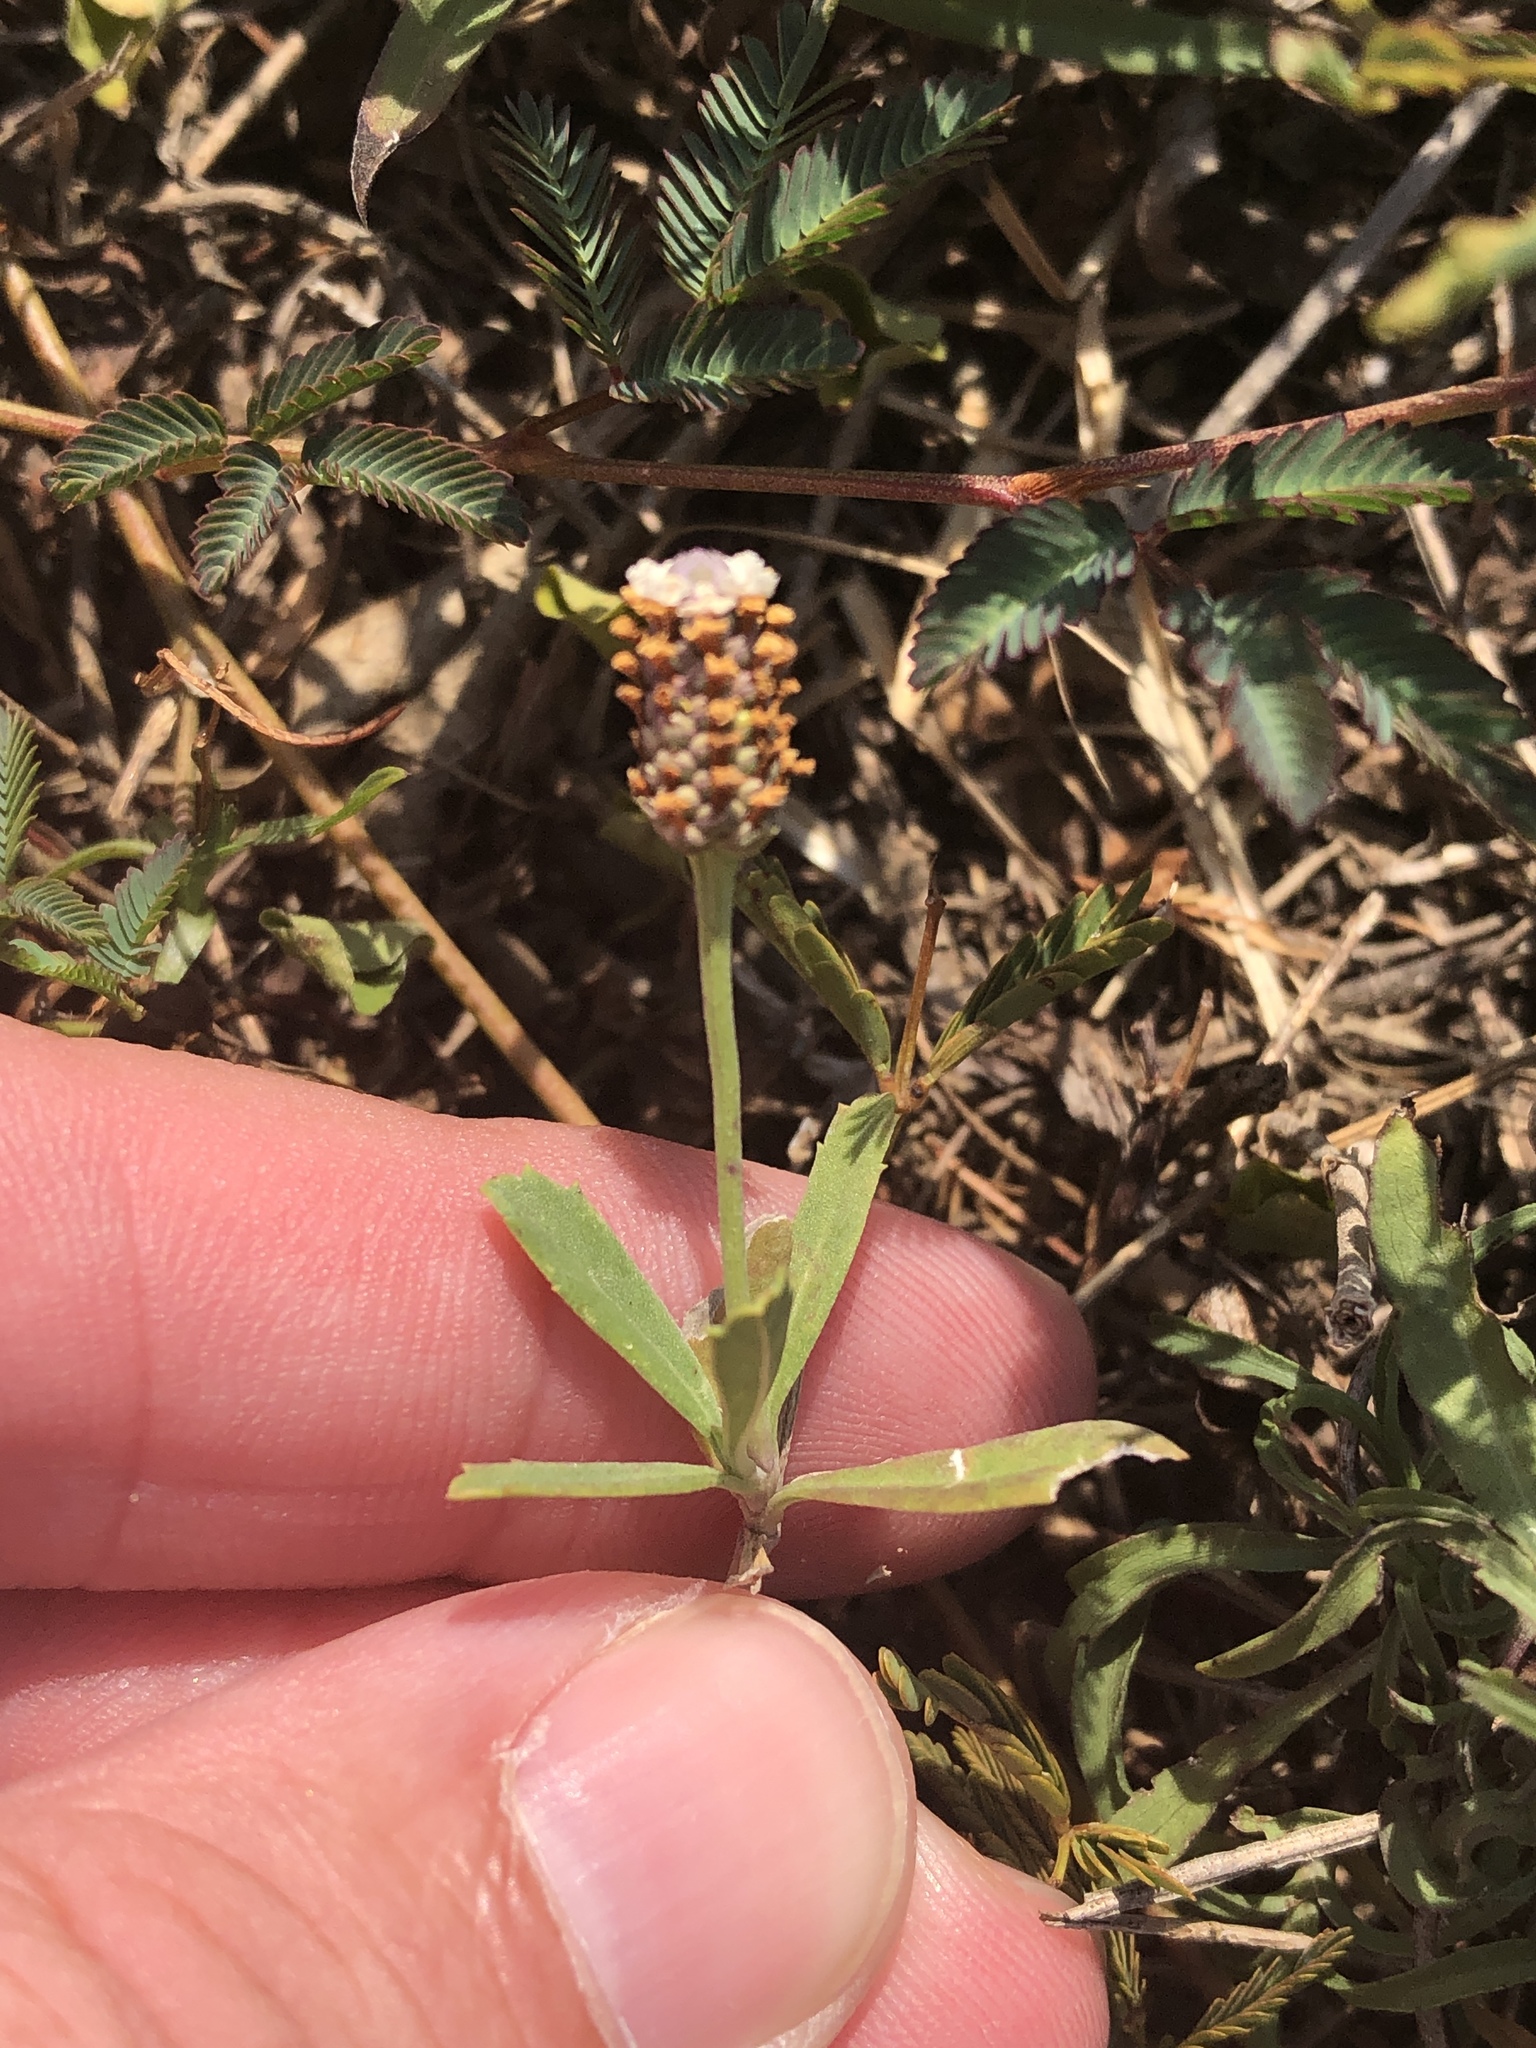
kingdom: Plantae
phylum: Tracheophyta
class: Magnoliopsida
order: Lamiales
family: Verbenaceae
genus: Phyla
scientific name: Phyla nodiflora
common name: Frogfruit
